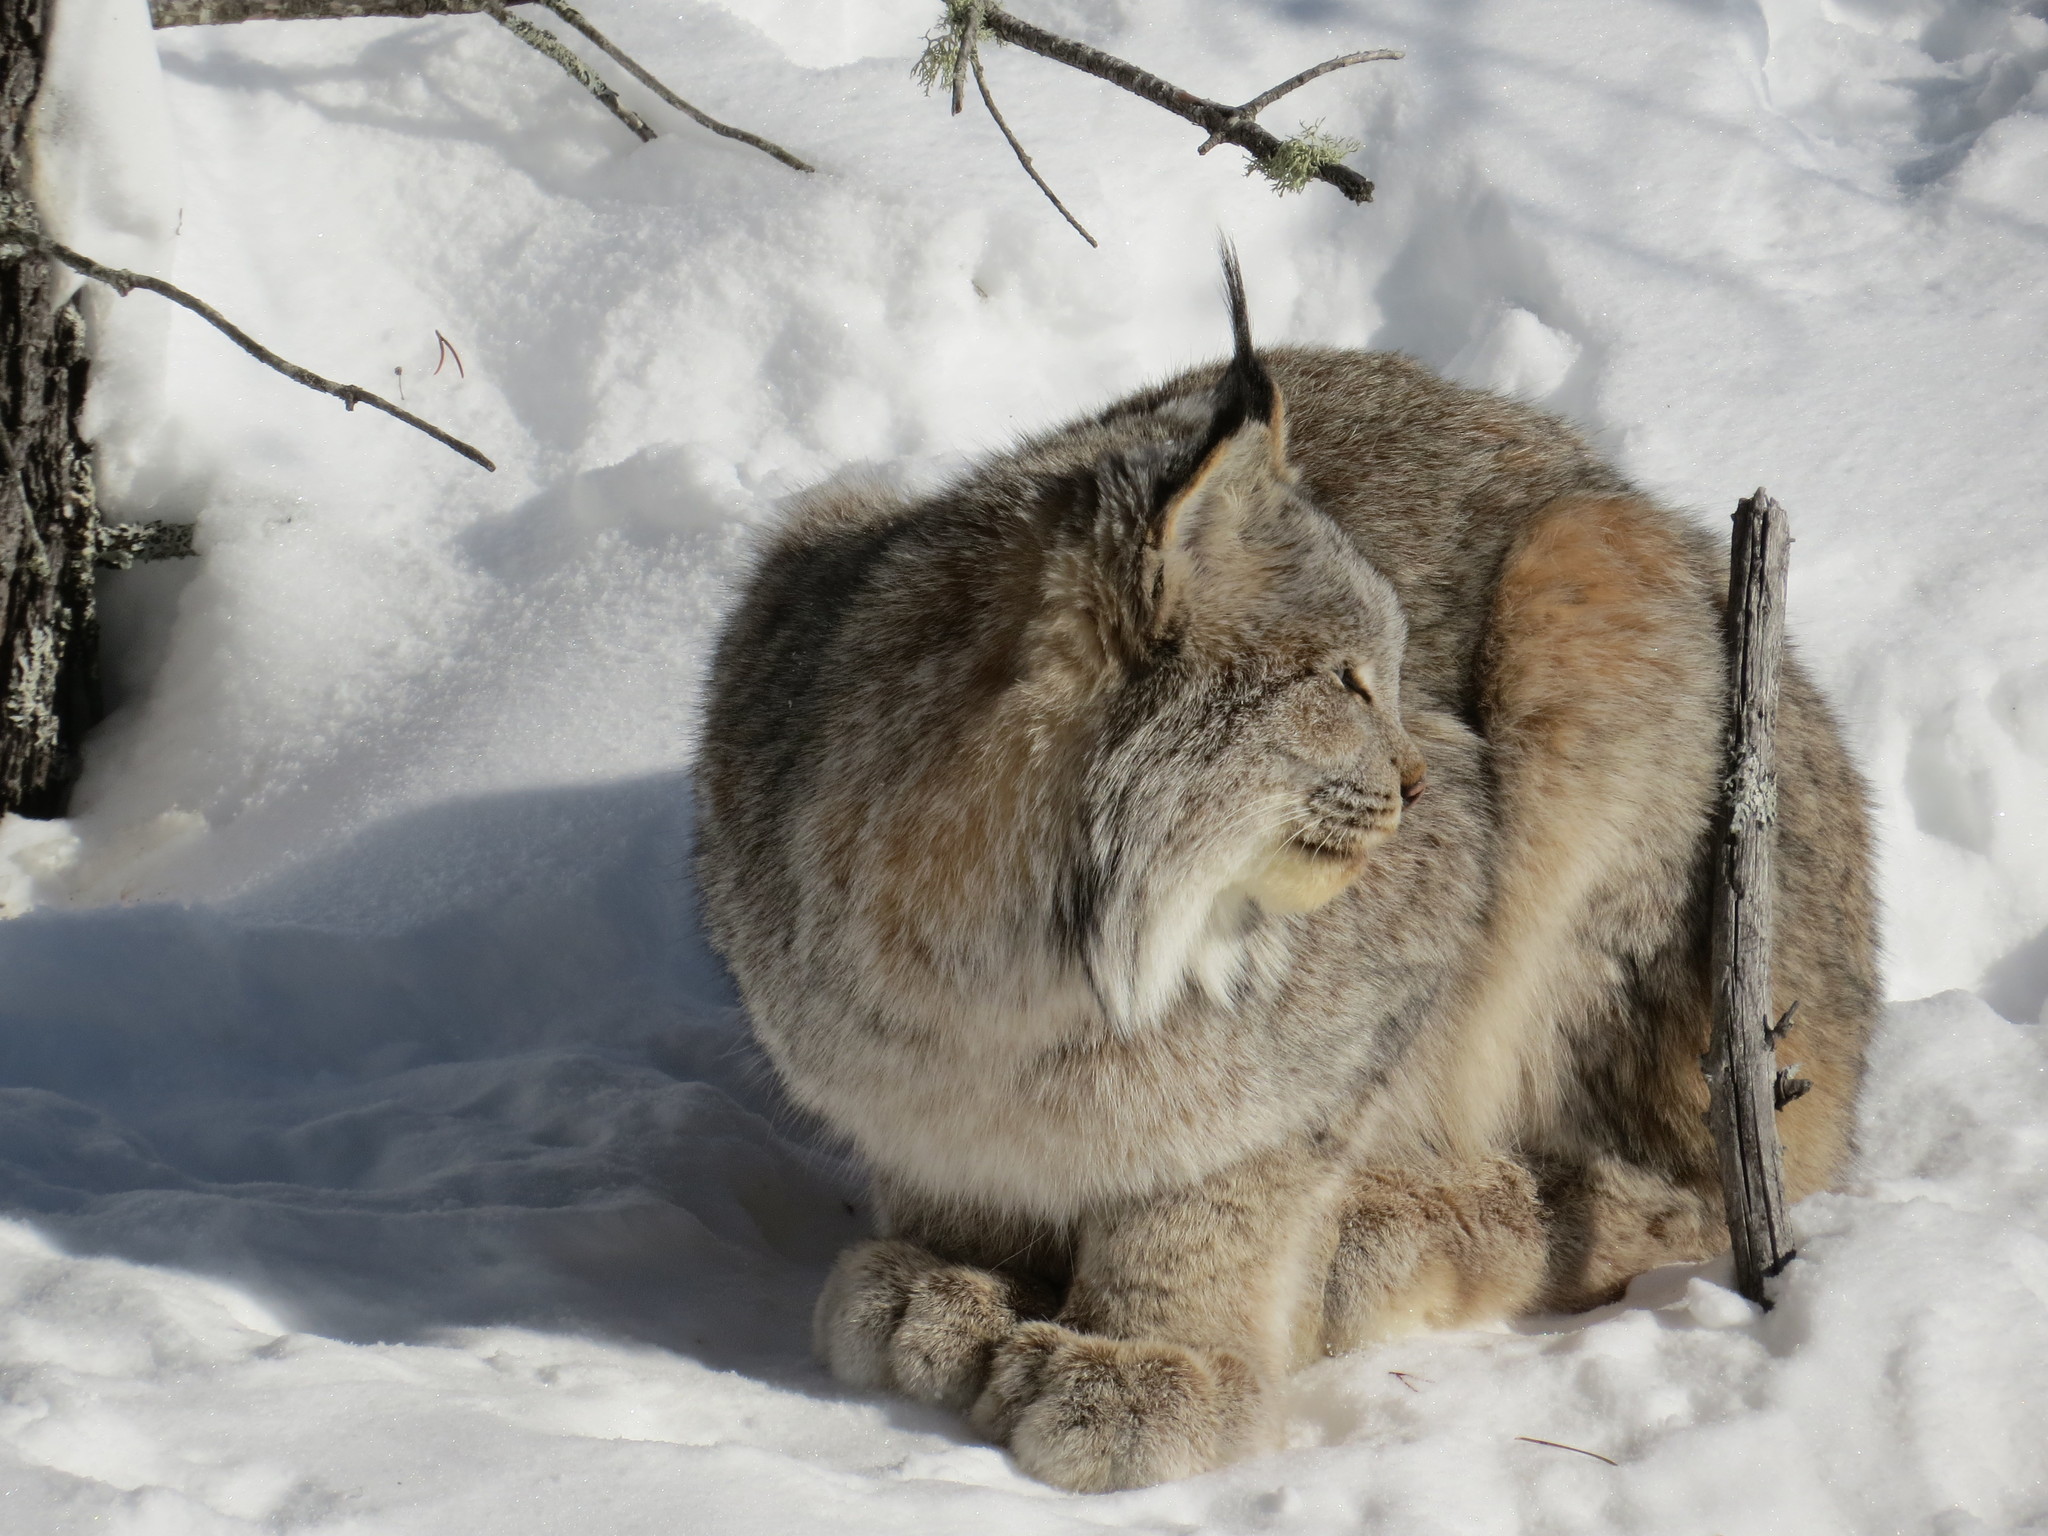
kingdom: Animalia
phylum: Chordata
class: Mammalia
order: Carnivora
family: Felidae
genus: Lynx
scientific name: Lynx canadensis
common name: Canadian lynx
